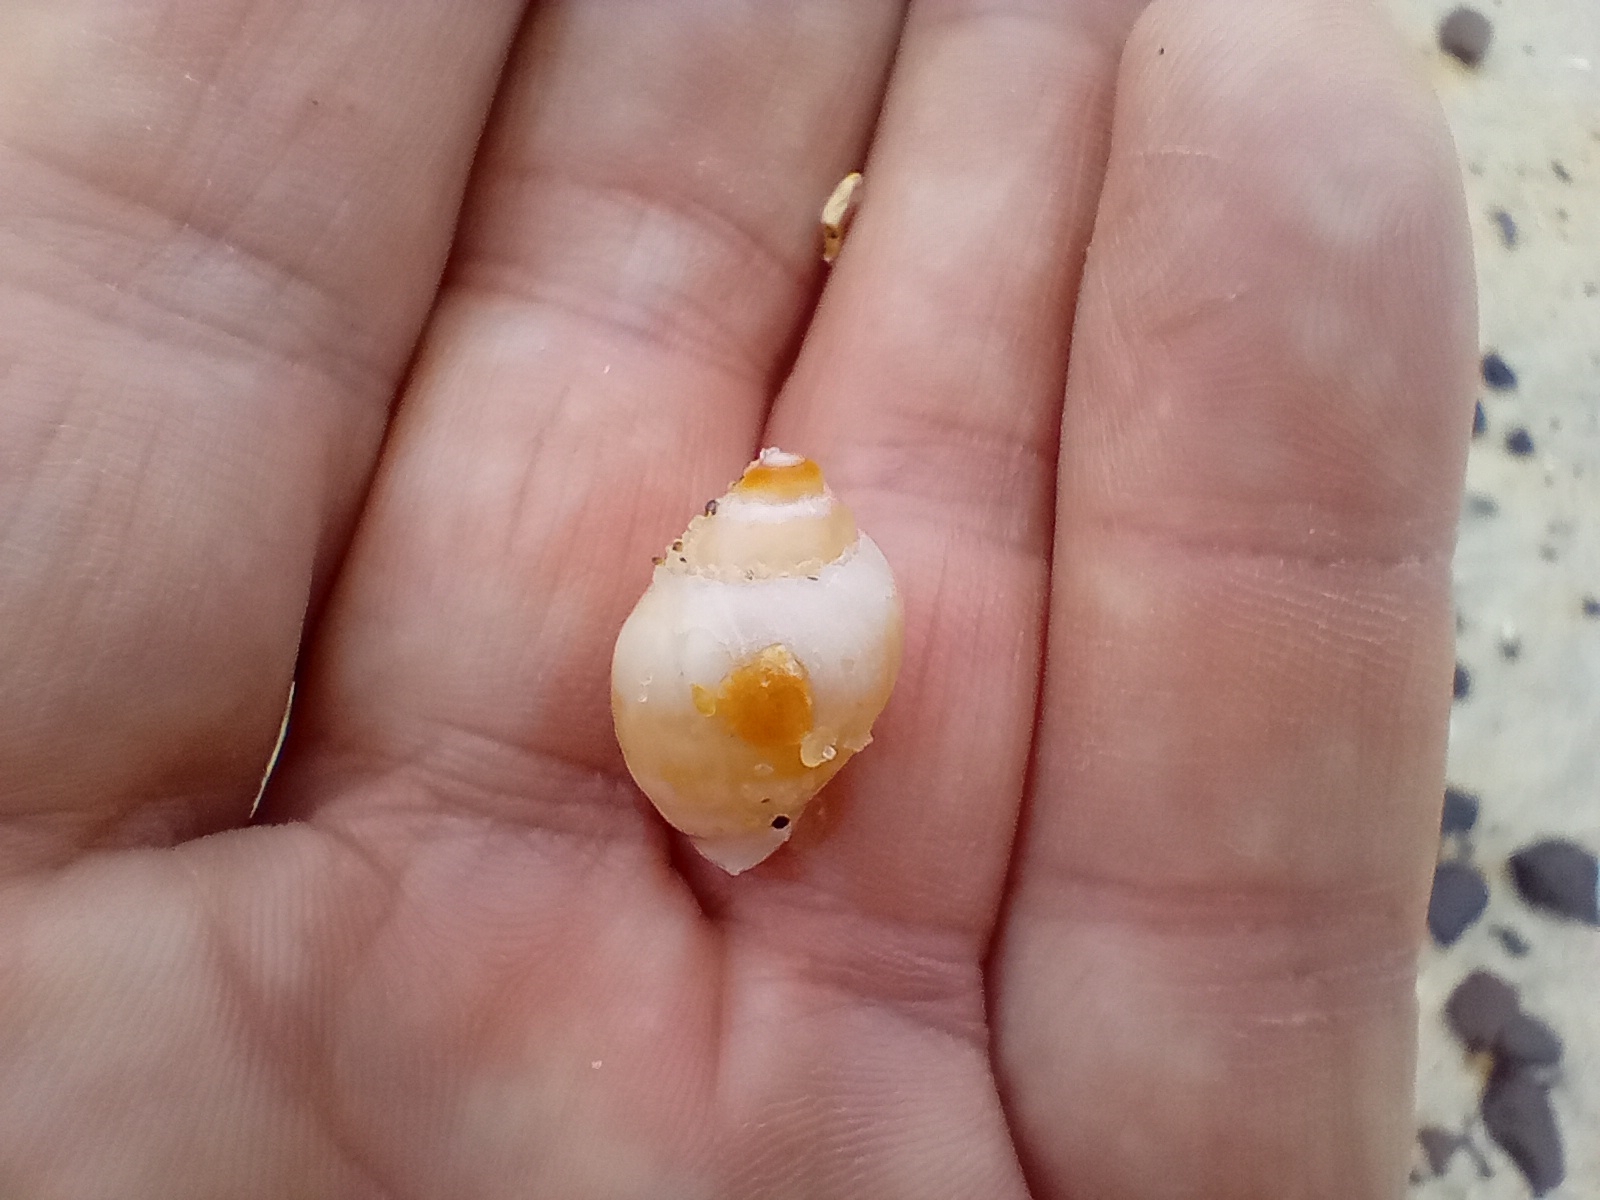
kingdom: Animalia
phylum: Mollusca
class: Gastropoda
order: Neogastropoda
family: Muricidae
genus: Paratrophon
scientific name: Paratrophon patens
